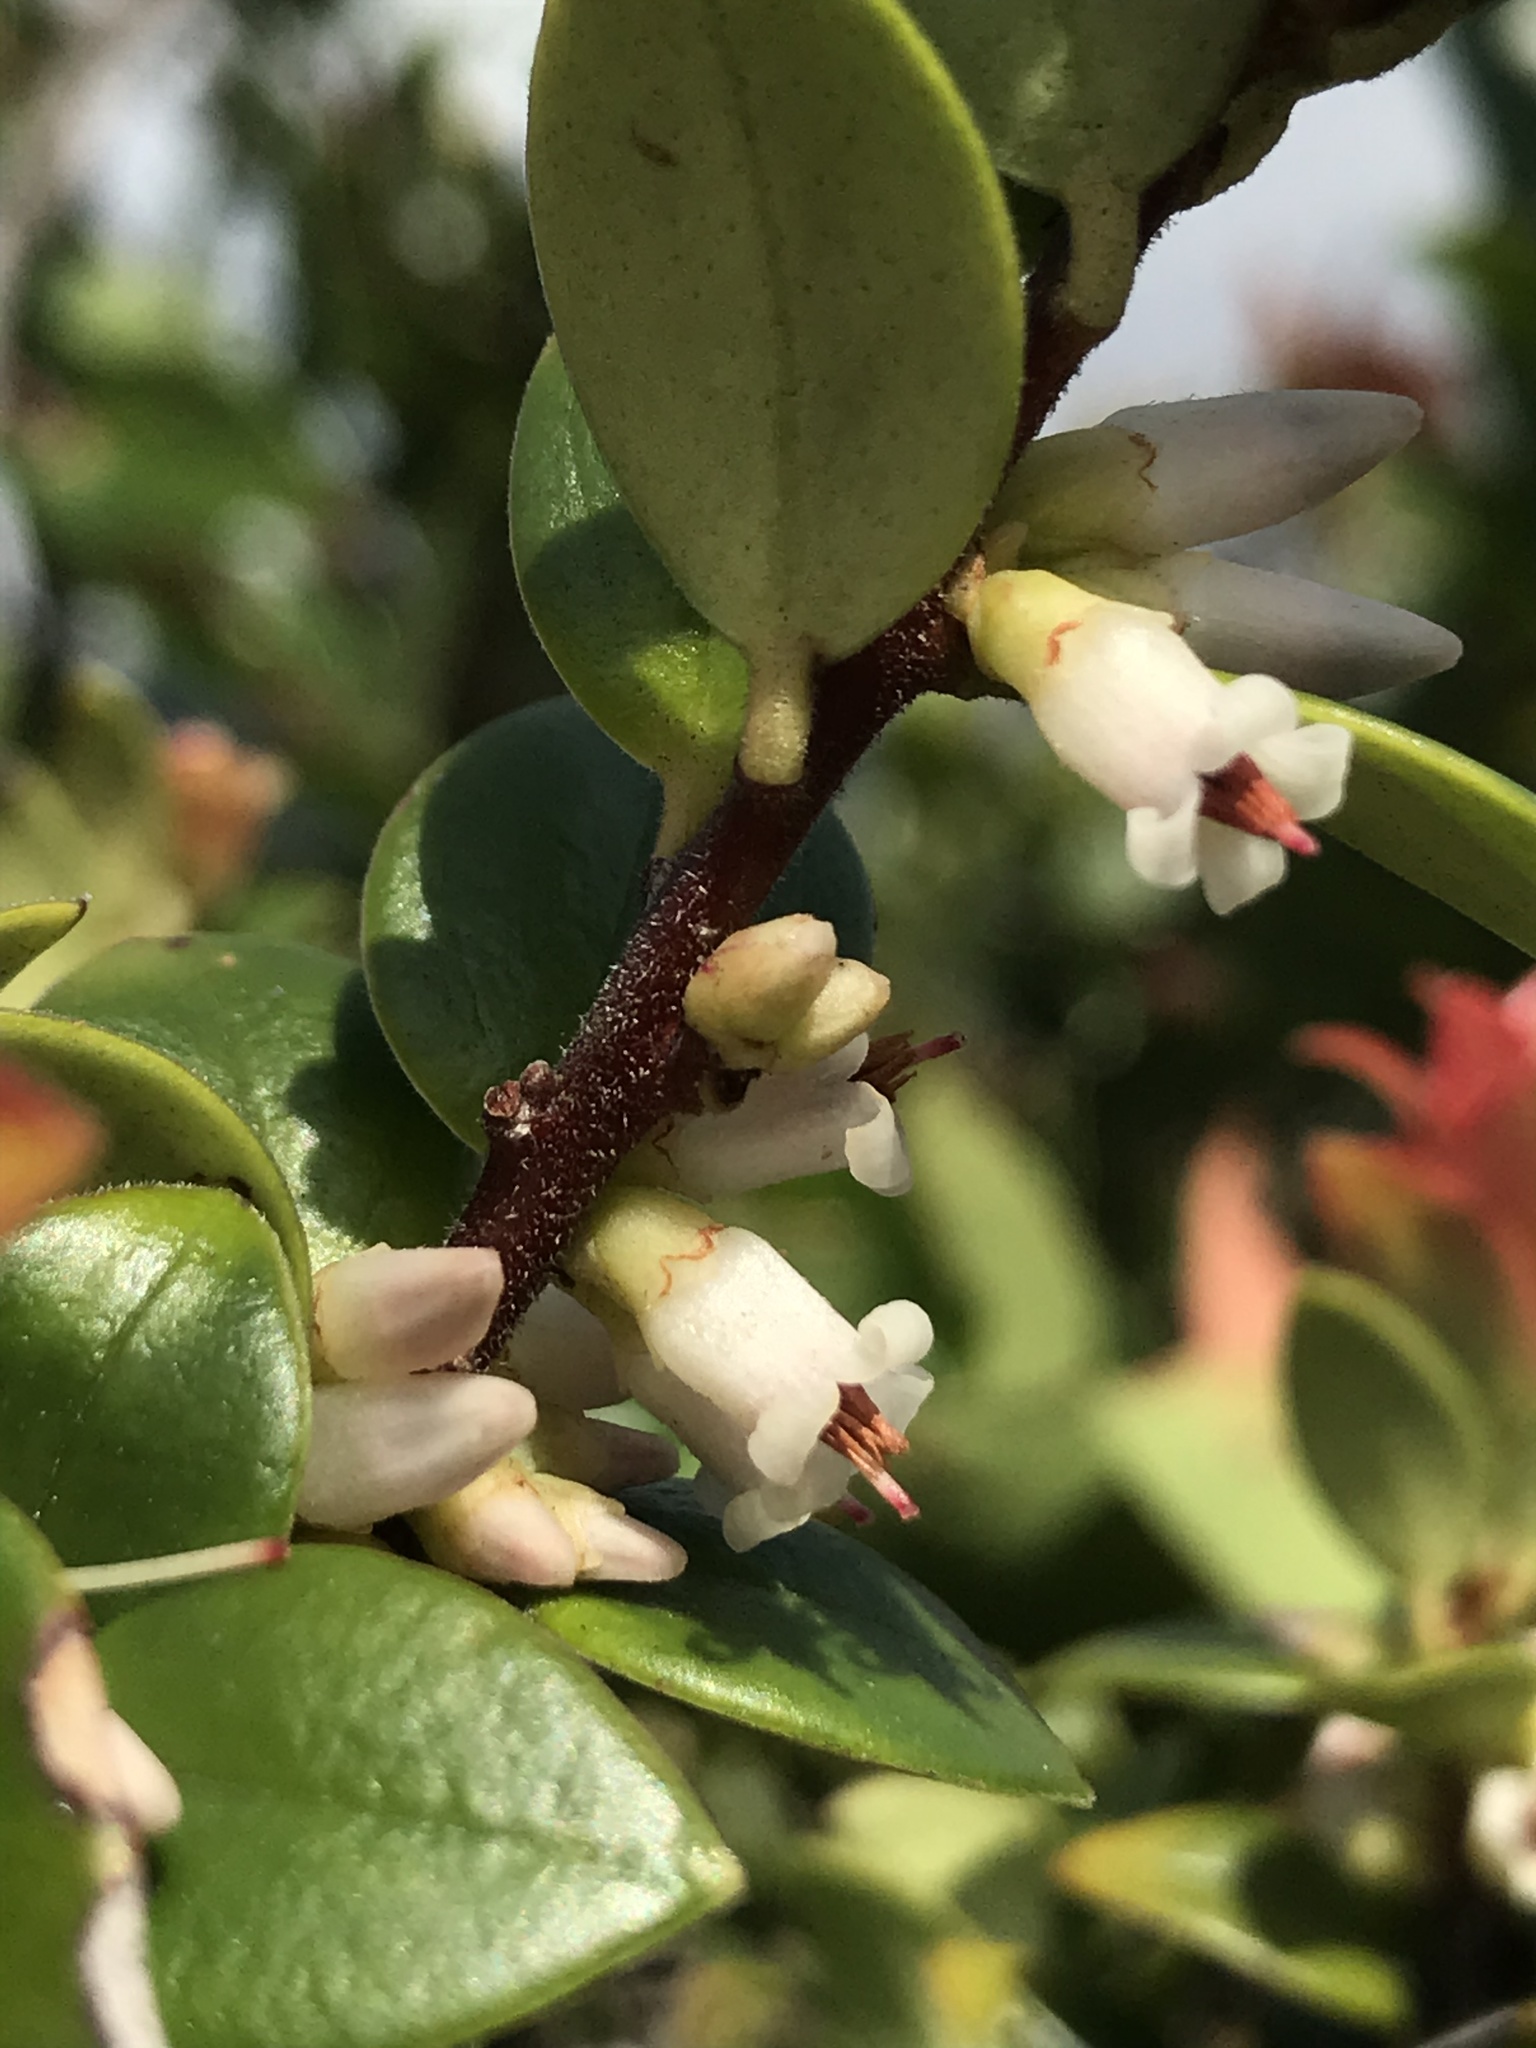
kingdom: Plantae
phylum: Tracheophyta
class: Magnoliopsida
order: Ericales
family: Ericaceae
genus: Disterigma
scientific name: Disterigma alaternoides
